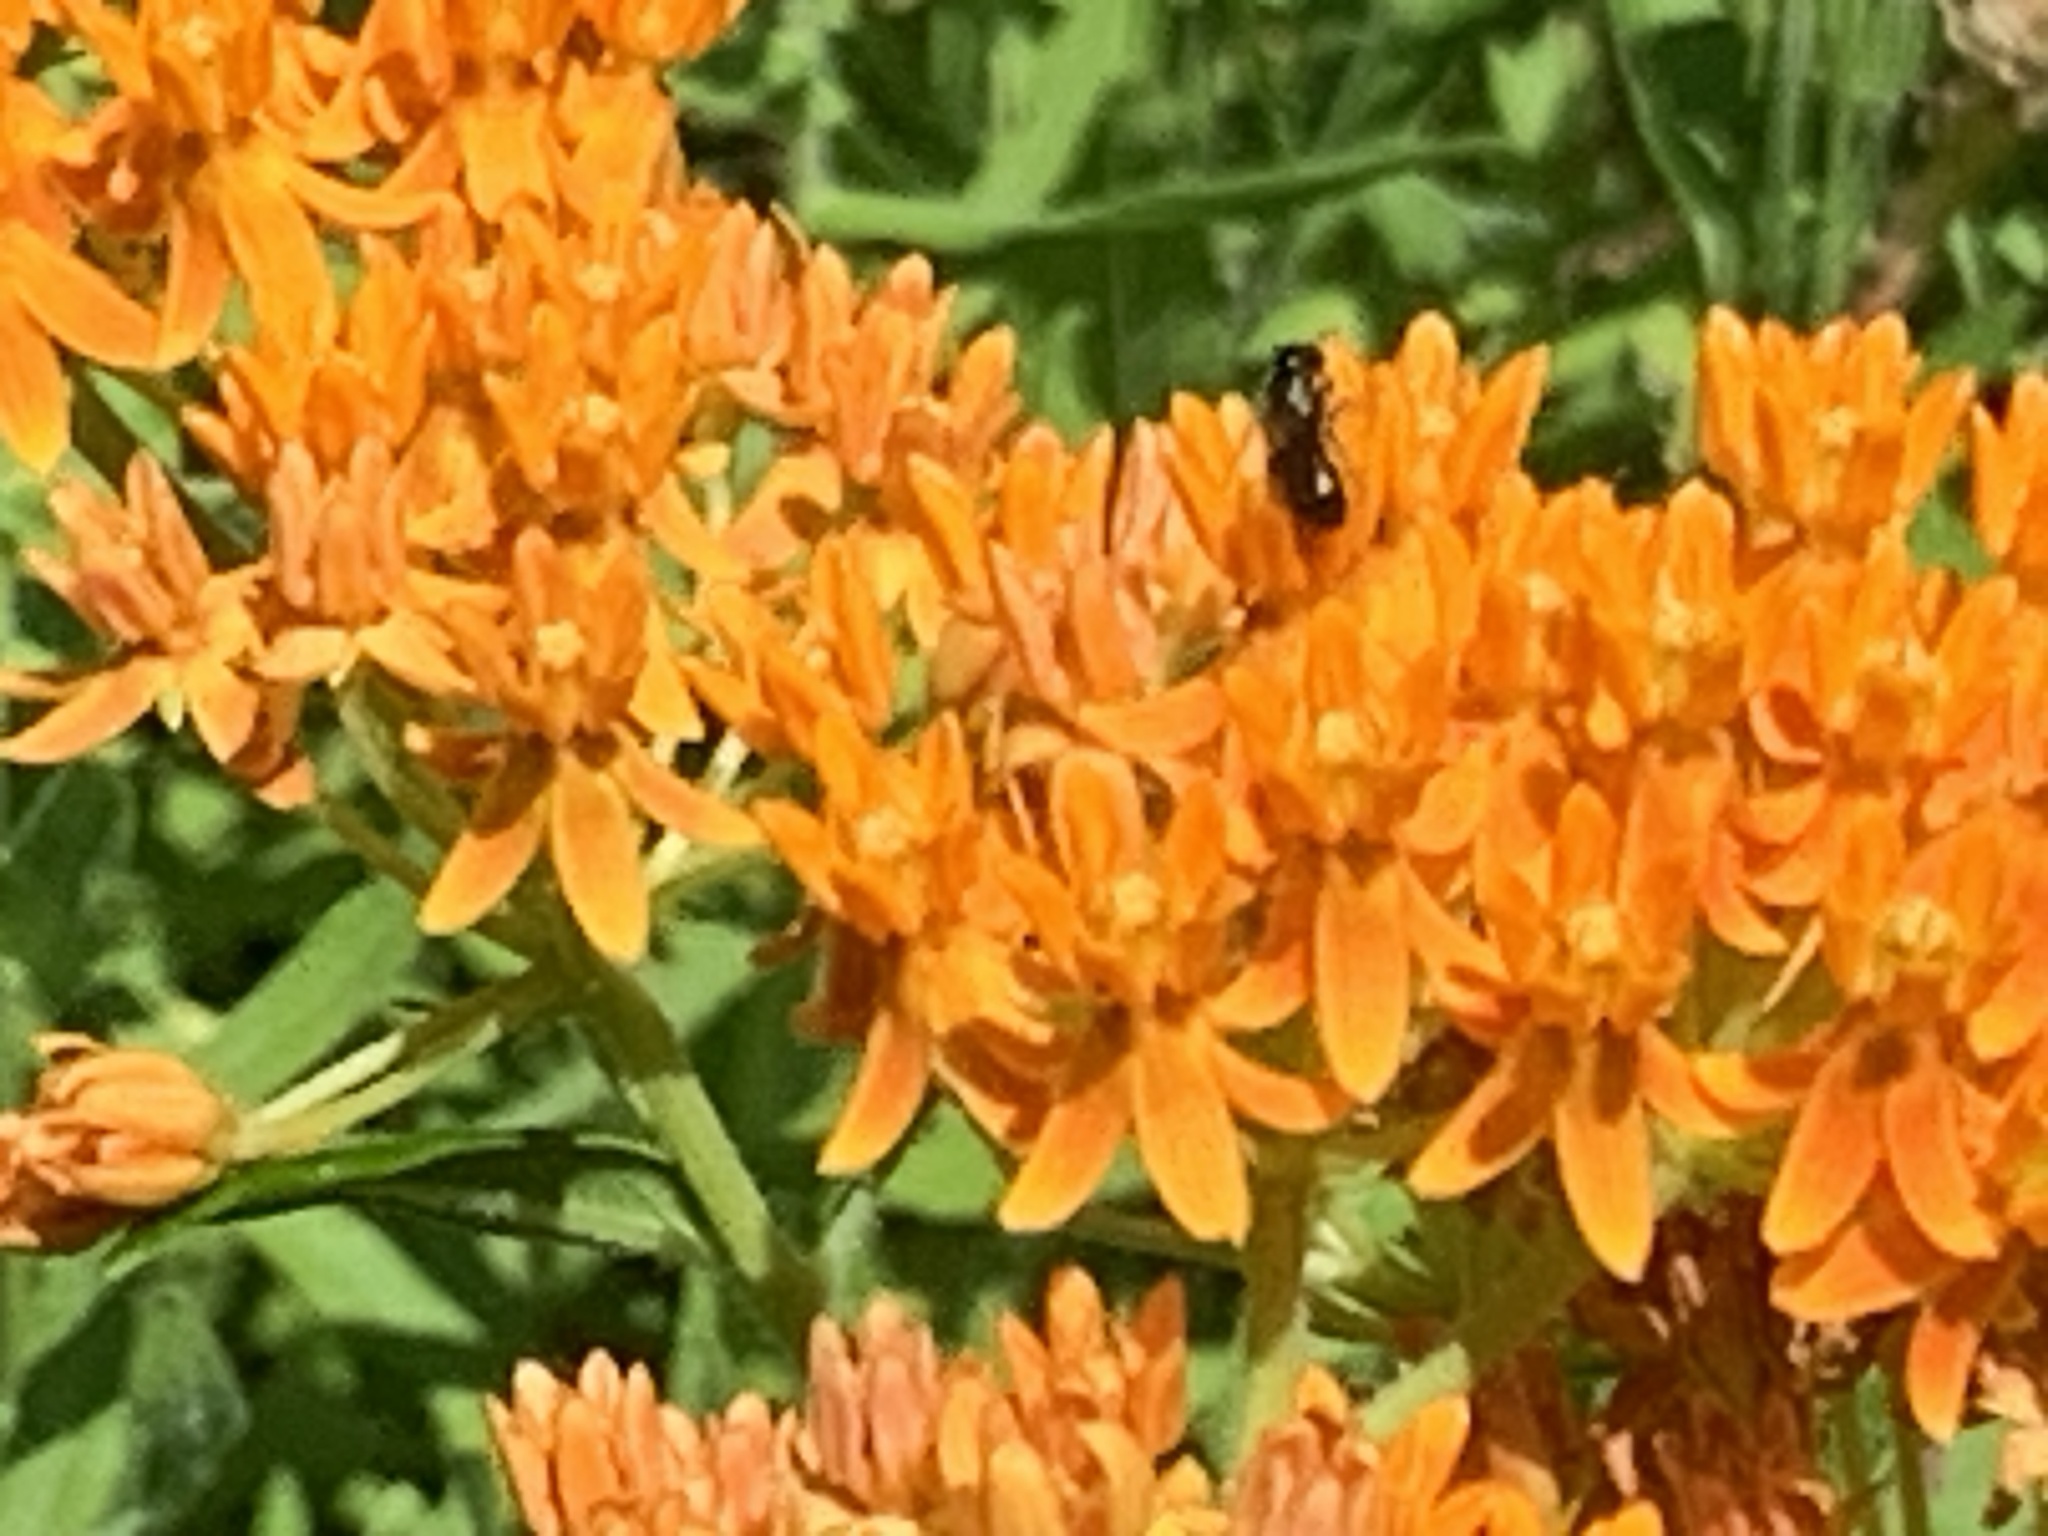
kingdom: Animalia
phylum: Arthropoda
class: Insecta
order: Hymenoptera
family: Apidae
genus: Zadontomerus
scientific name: Zadontomerus
